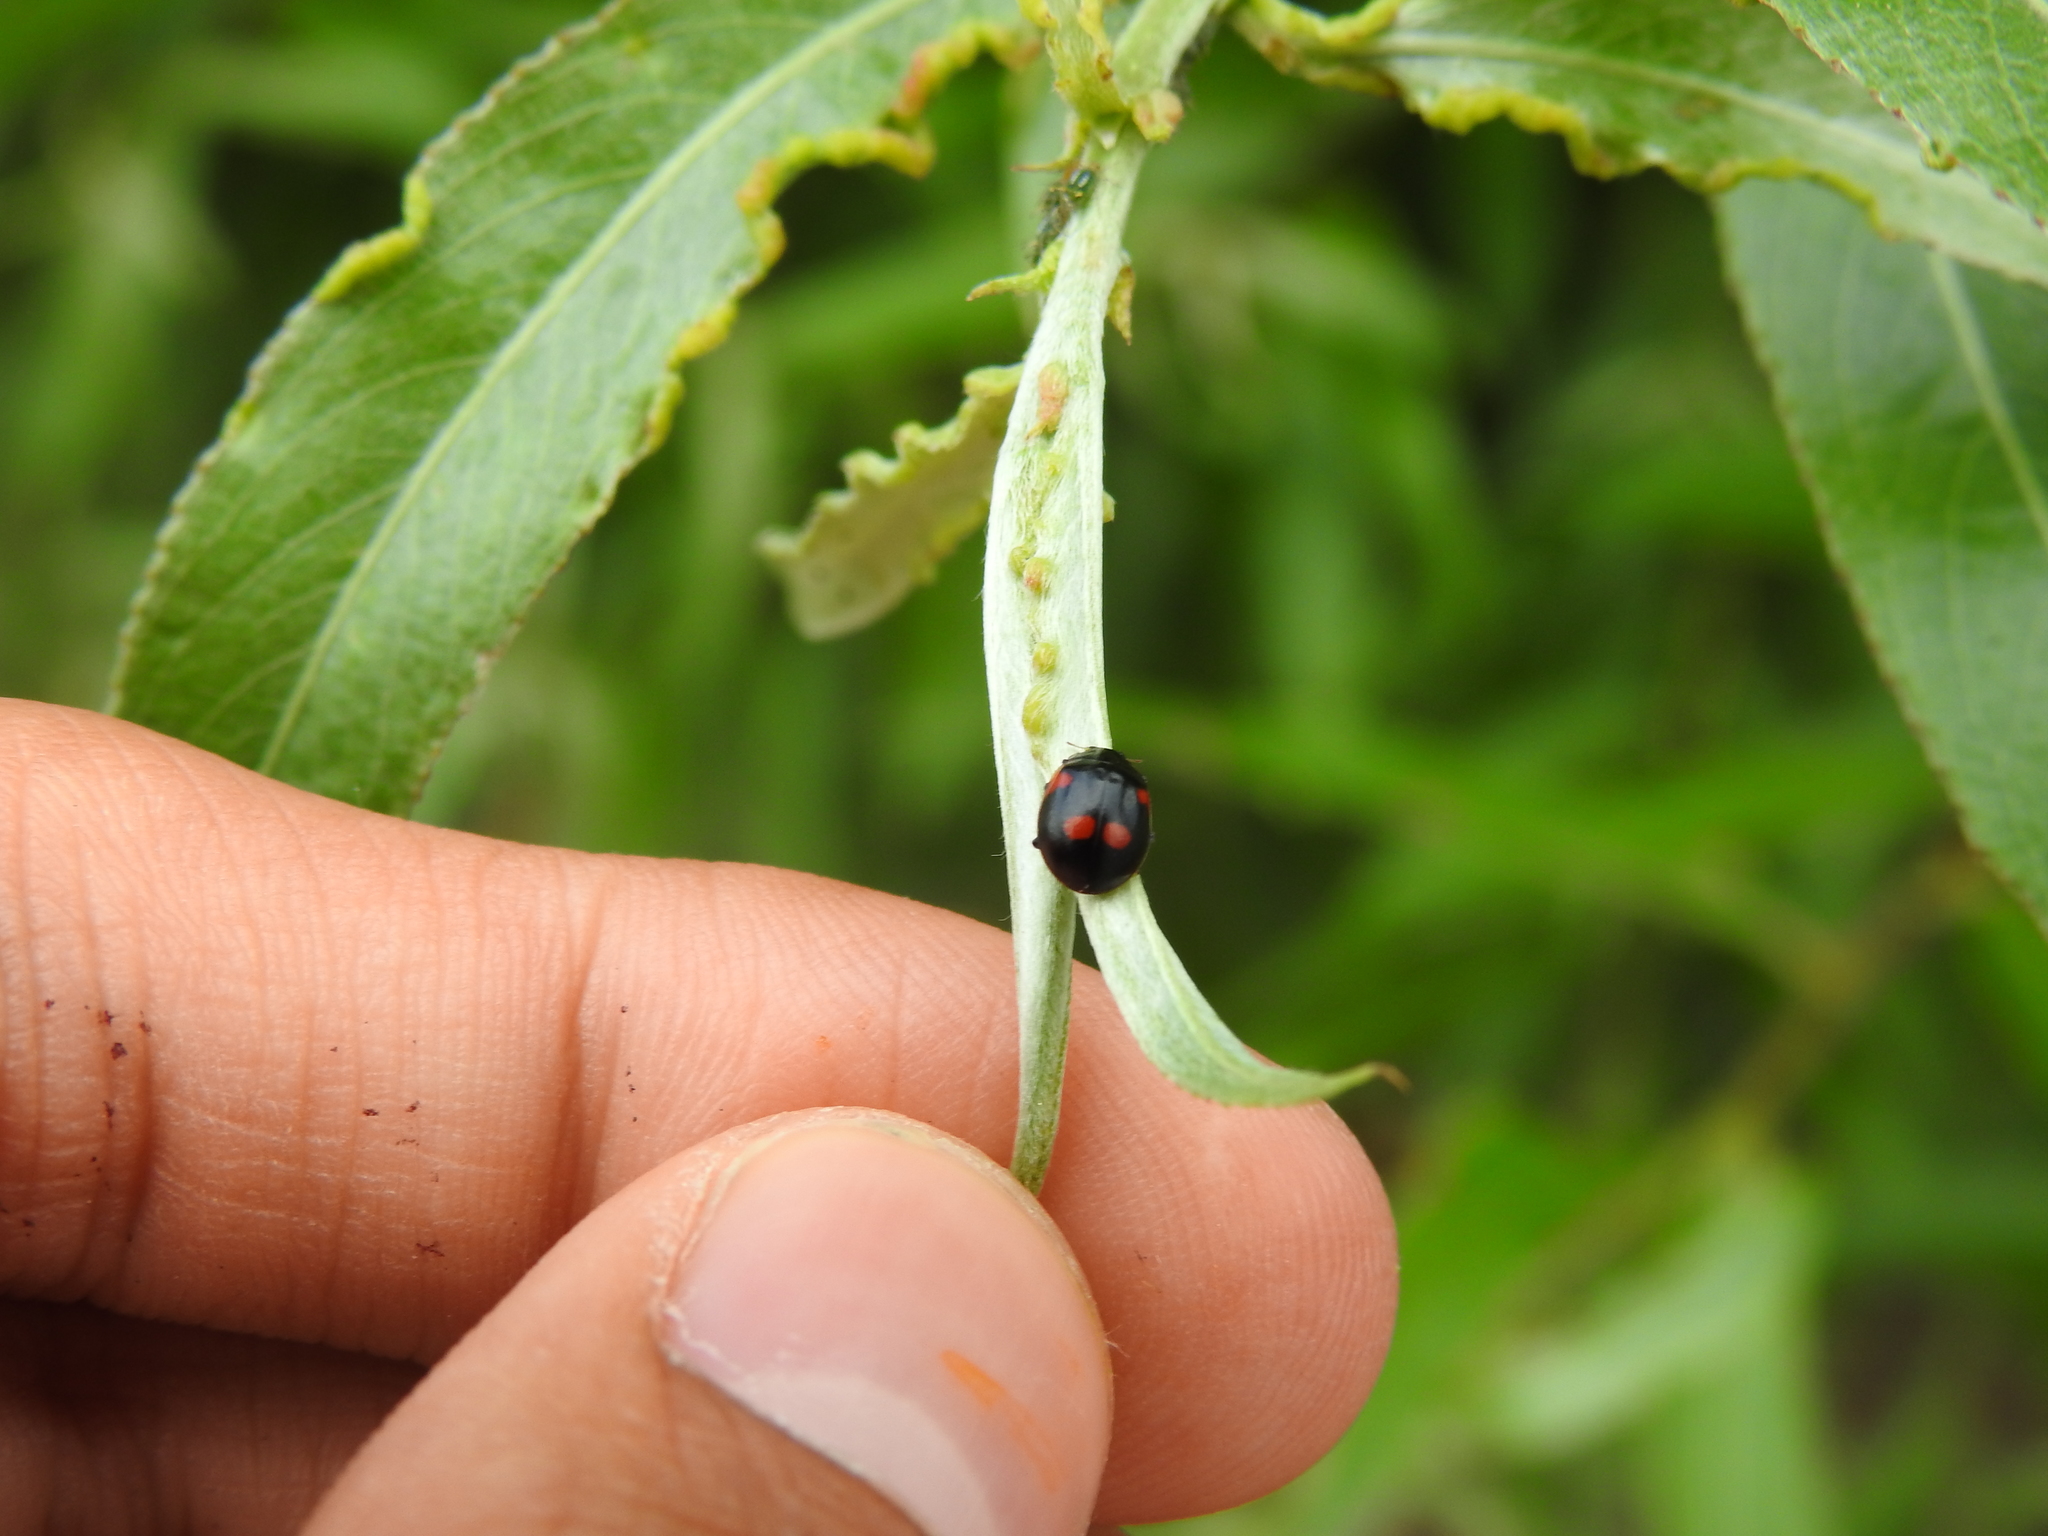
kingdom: Animalia
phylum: Arthropoda
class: Insecta
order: Coleoptera
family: Coccinellidae
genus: Adalia
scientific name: Adalia bipunctata
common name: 2-spot ladybird
